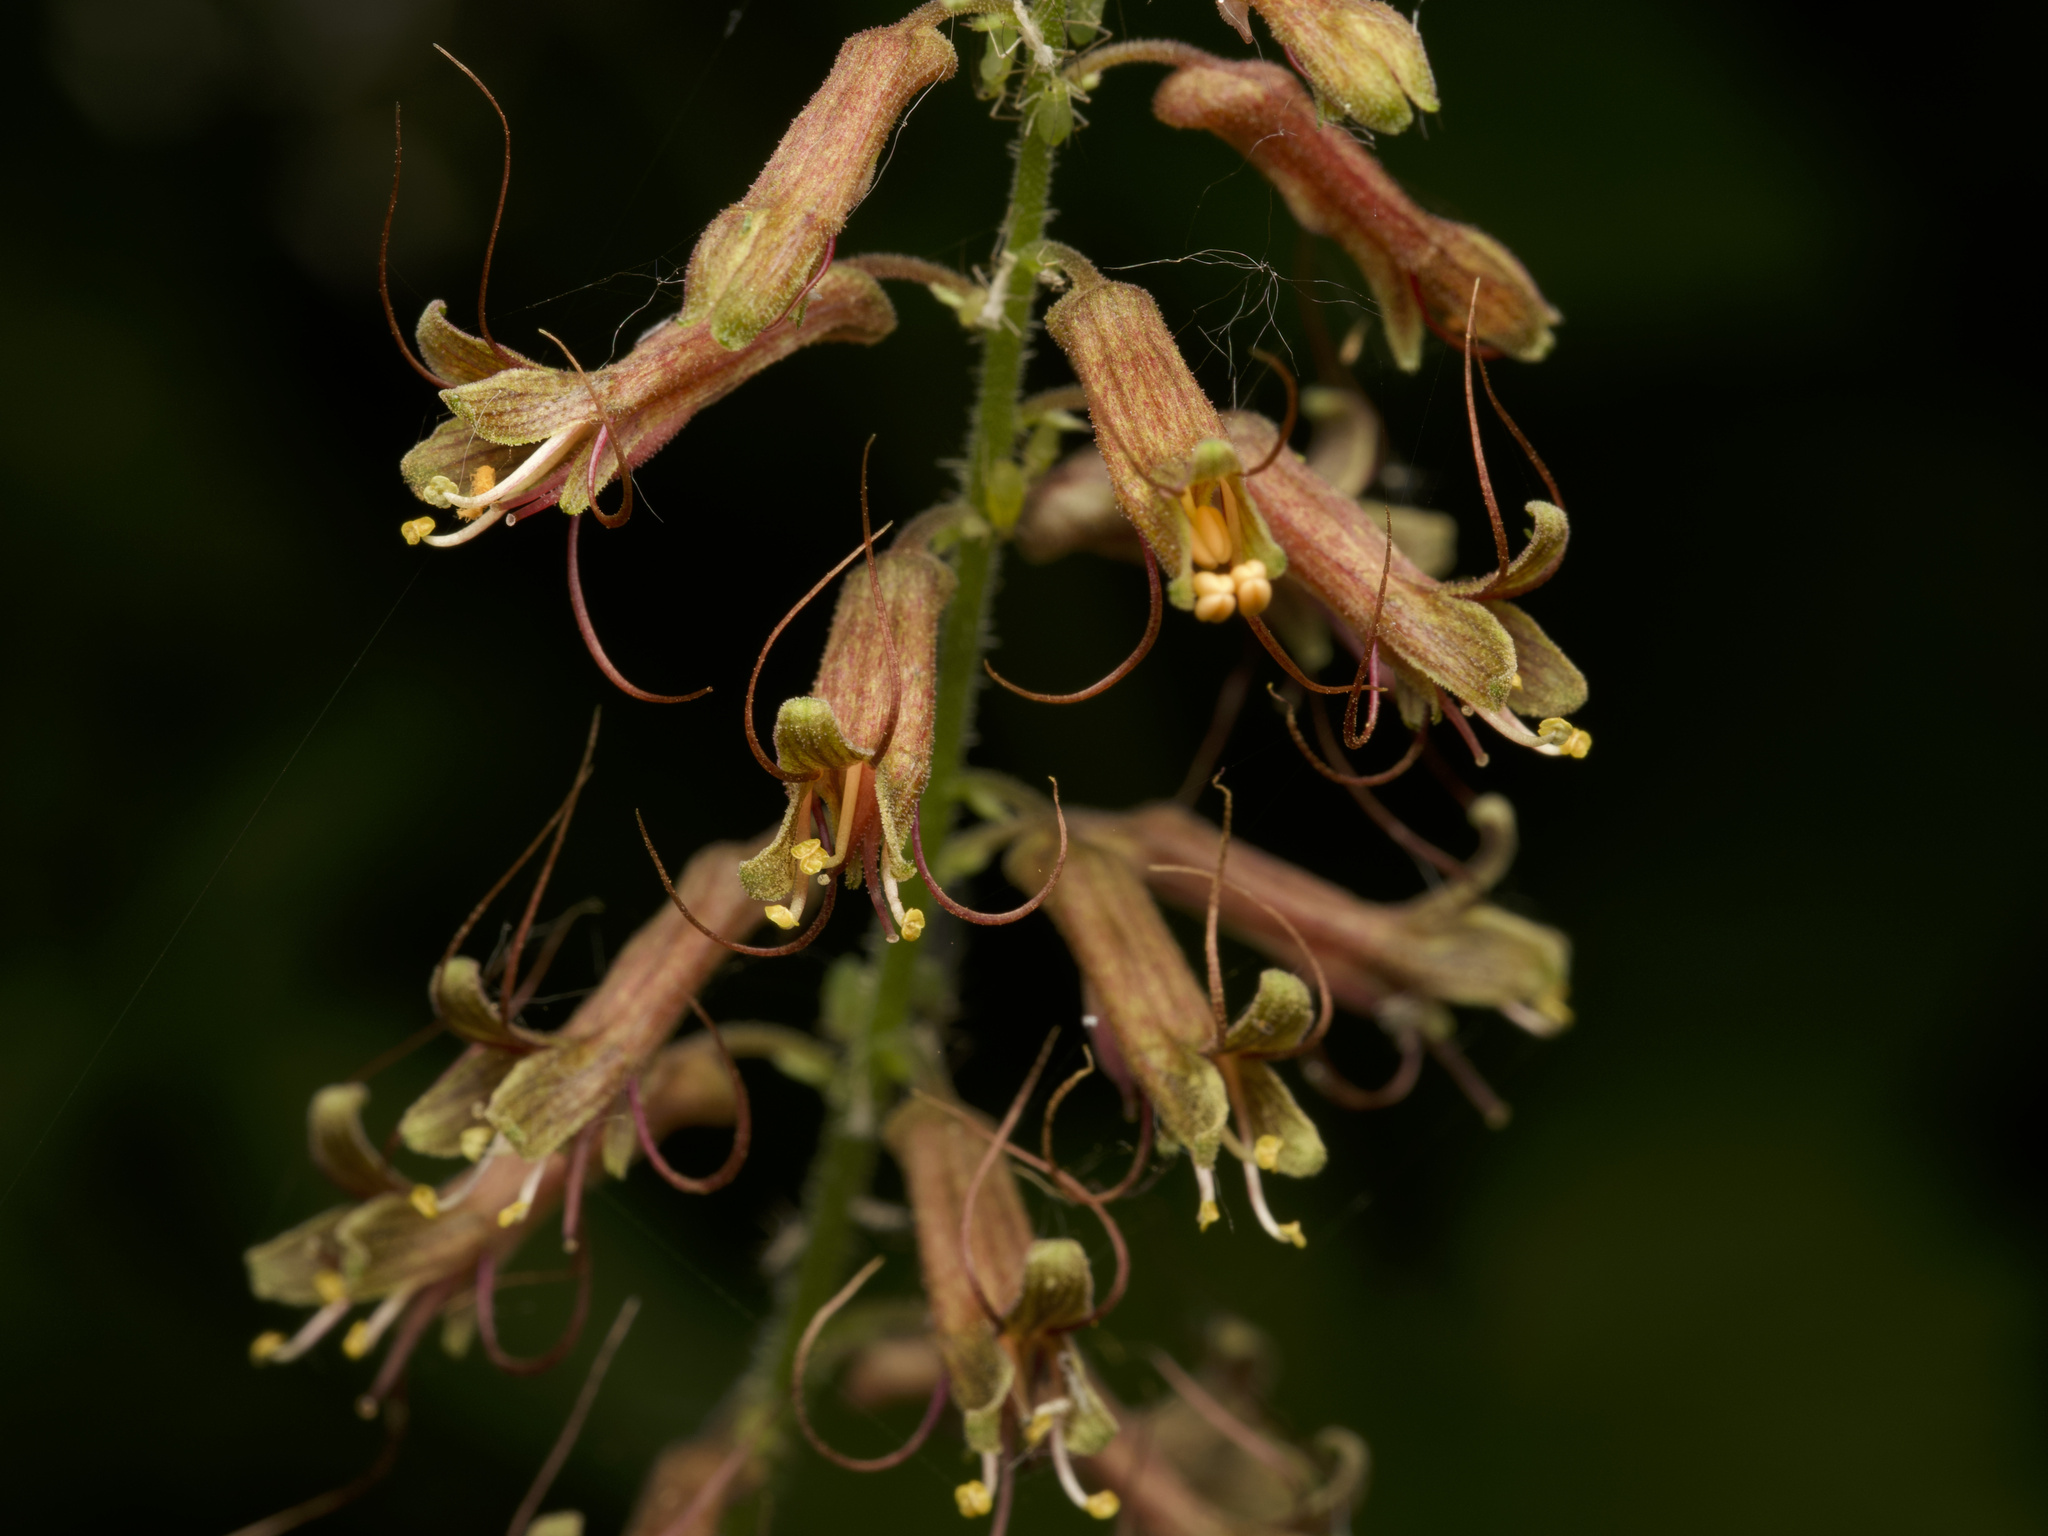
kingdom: Plantae
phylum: Tracheophyta
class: Magnoliopsida
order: Saxifragales
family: Saxifragaceae
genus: Tolmiea
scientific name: Tolmiea menziesii
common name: Pick-a-back-plant
